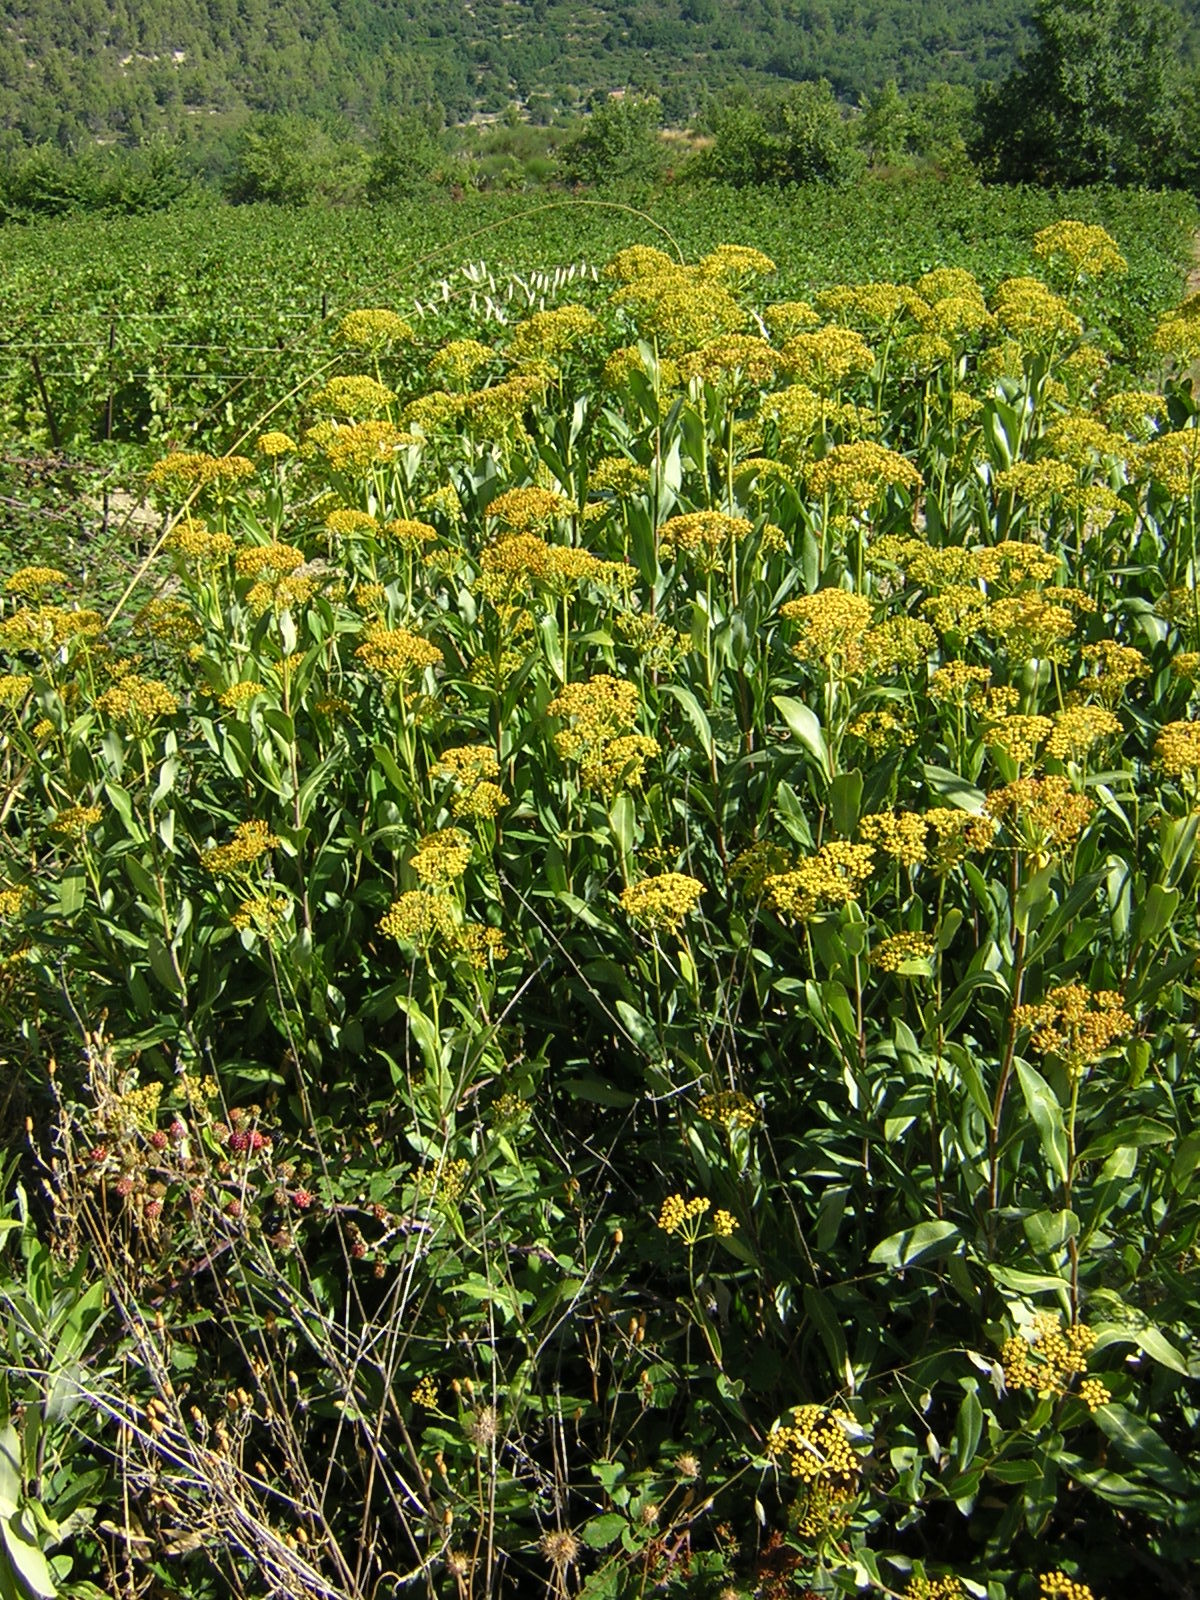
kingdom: Plantae
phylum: Tracheophyta
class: Magnoliopsida
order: Apiales
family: Apiaceae
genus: Bupleurum
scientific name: Bupleurum fruticosum
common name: Shrubby hare's-ear
